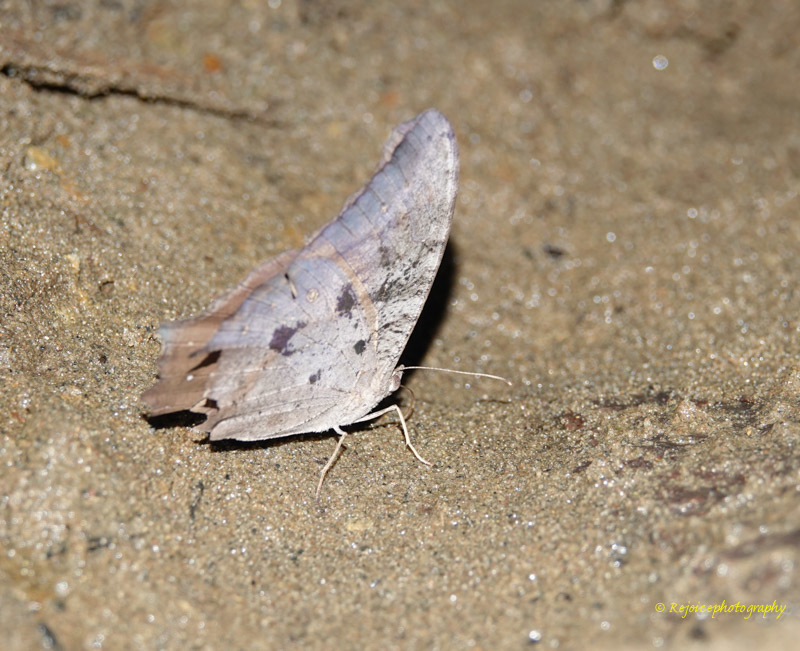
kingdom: Animalia
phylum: Arthropoda
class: Insecta
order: Lepidoptera
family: Nymphalidae
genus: Melanitis
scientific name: Melanitis leda
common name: Twilight brown
